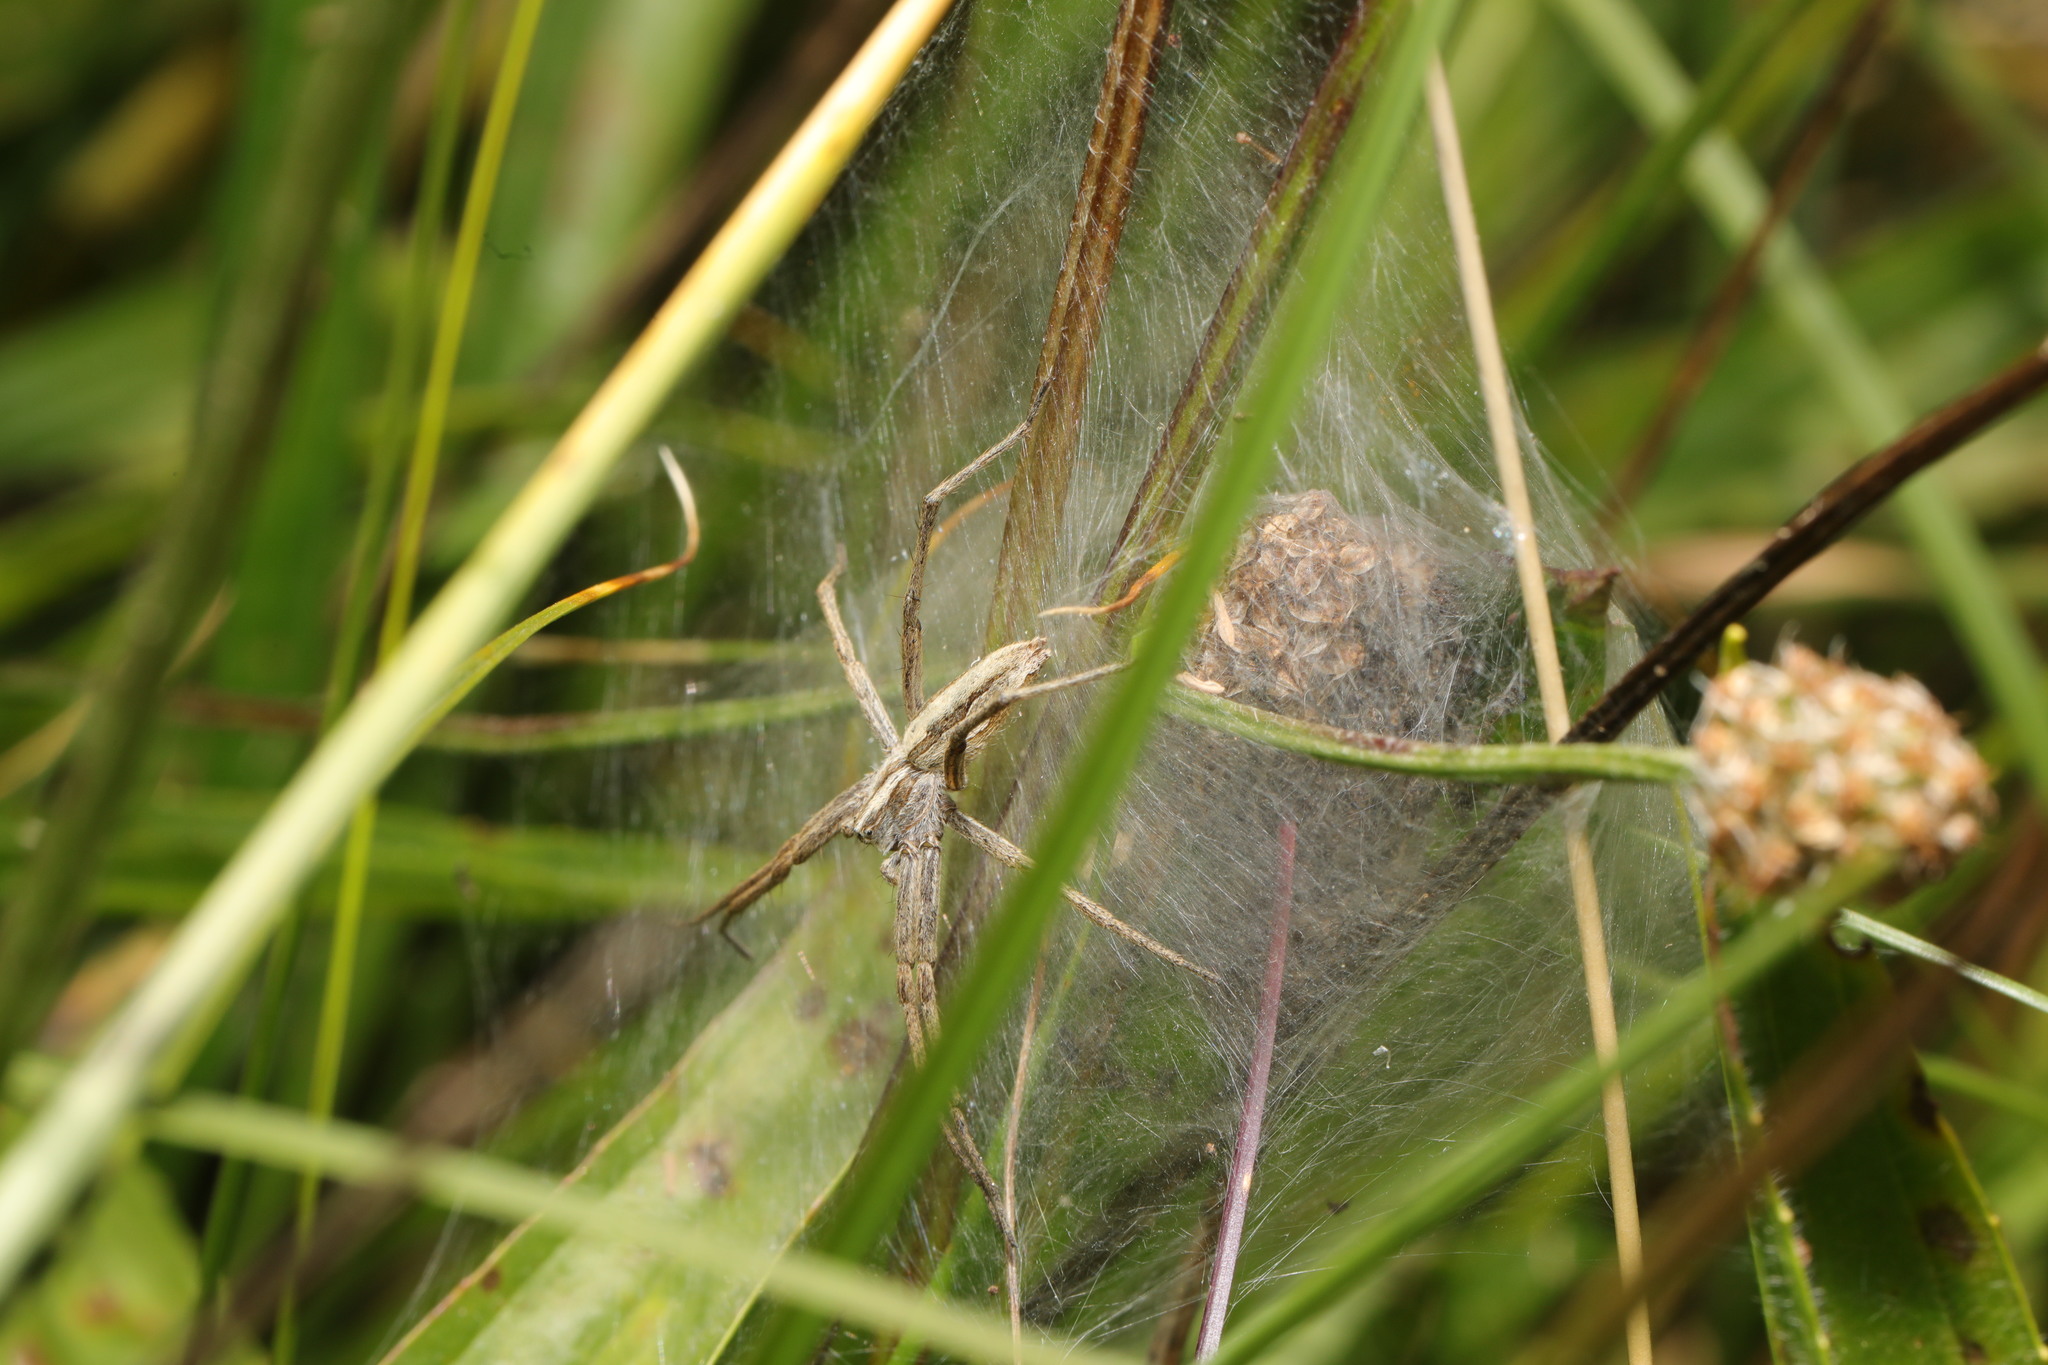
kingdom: Animalia
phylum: Arthropoda
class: Arachnida
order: Araneae
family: Pisauridae
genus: Pisaura
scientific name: Pisaura mirabilis
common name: Tent spider
